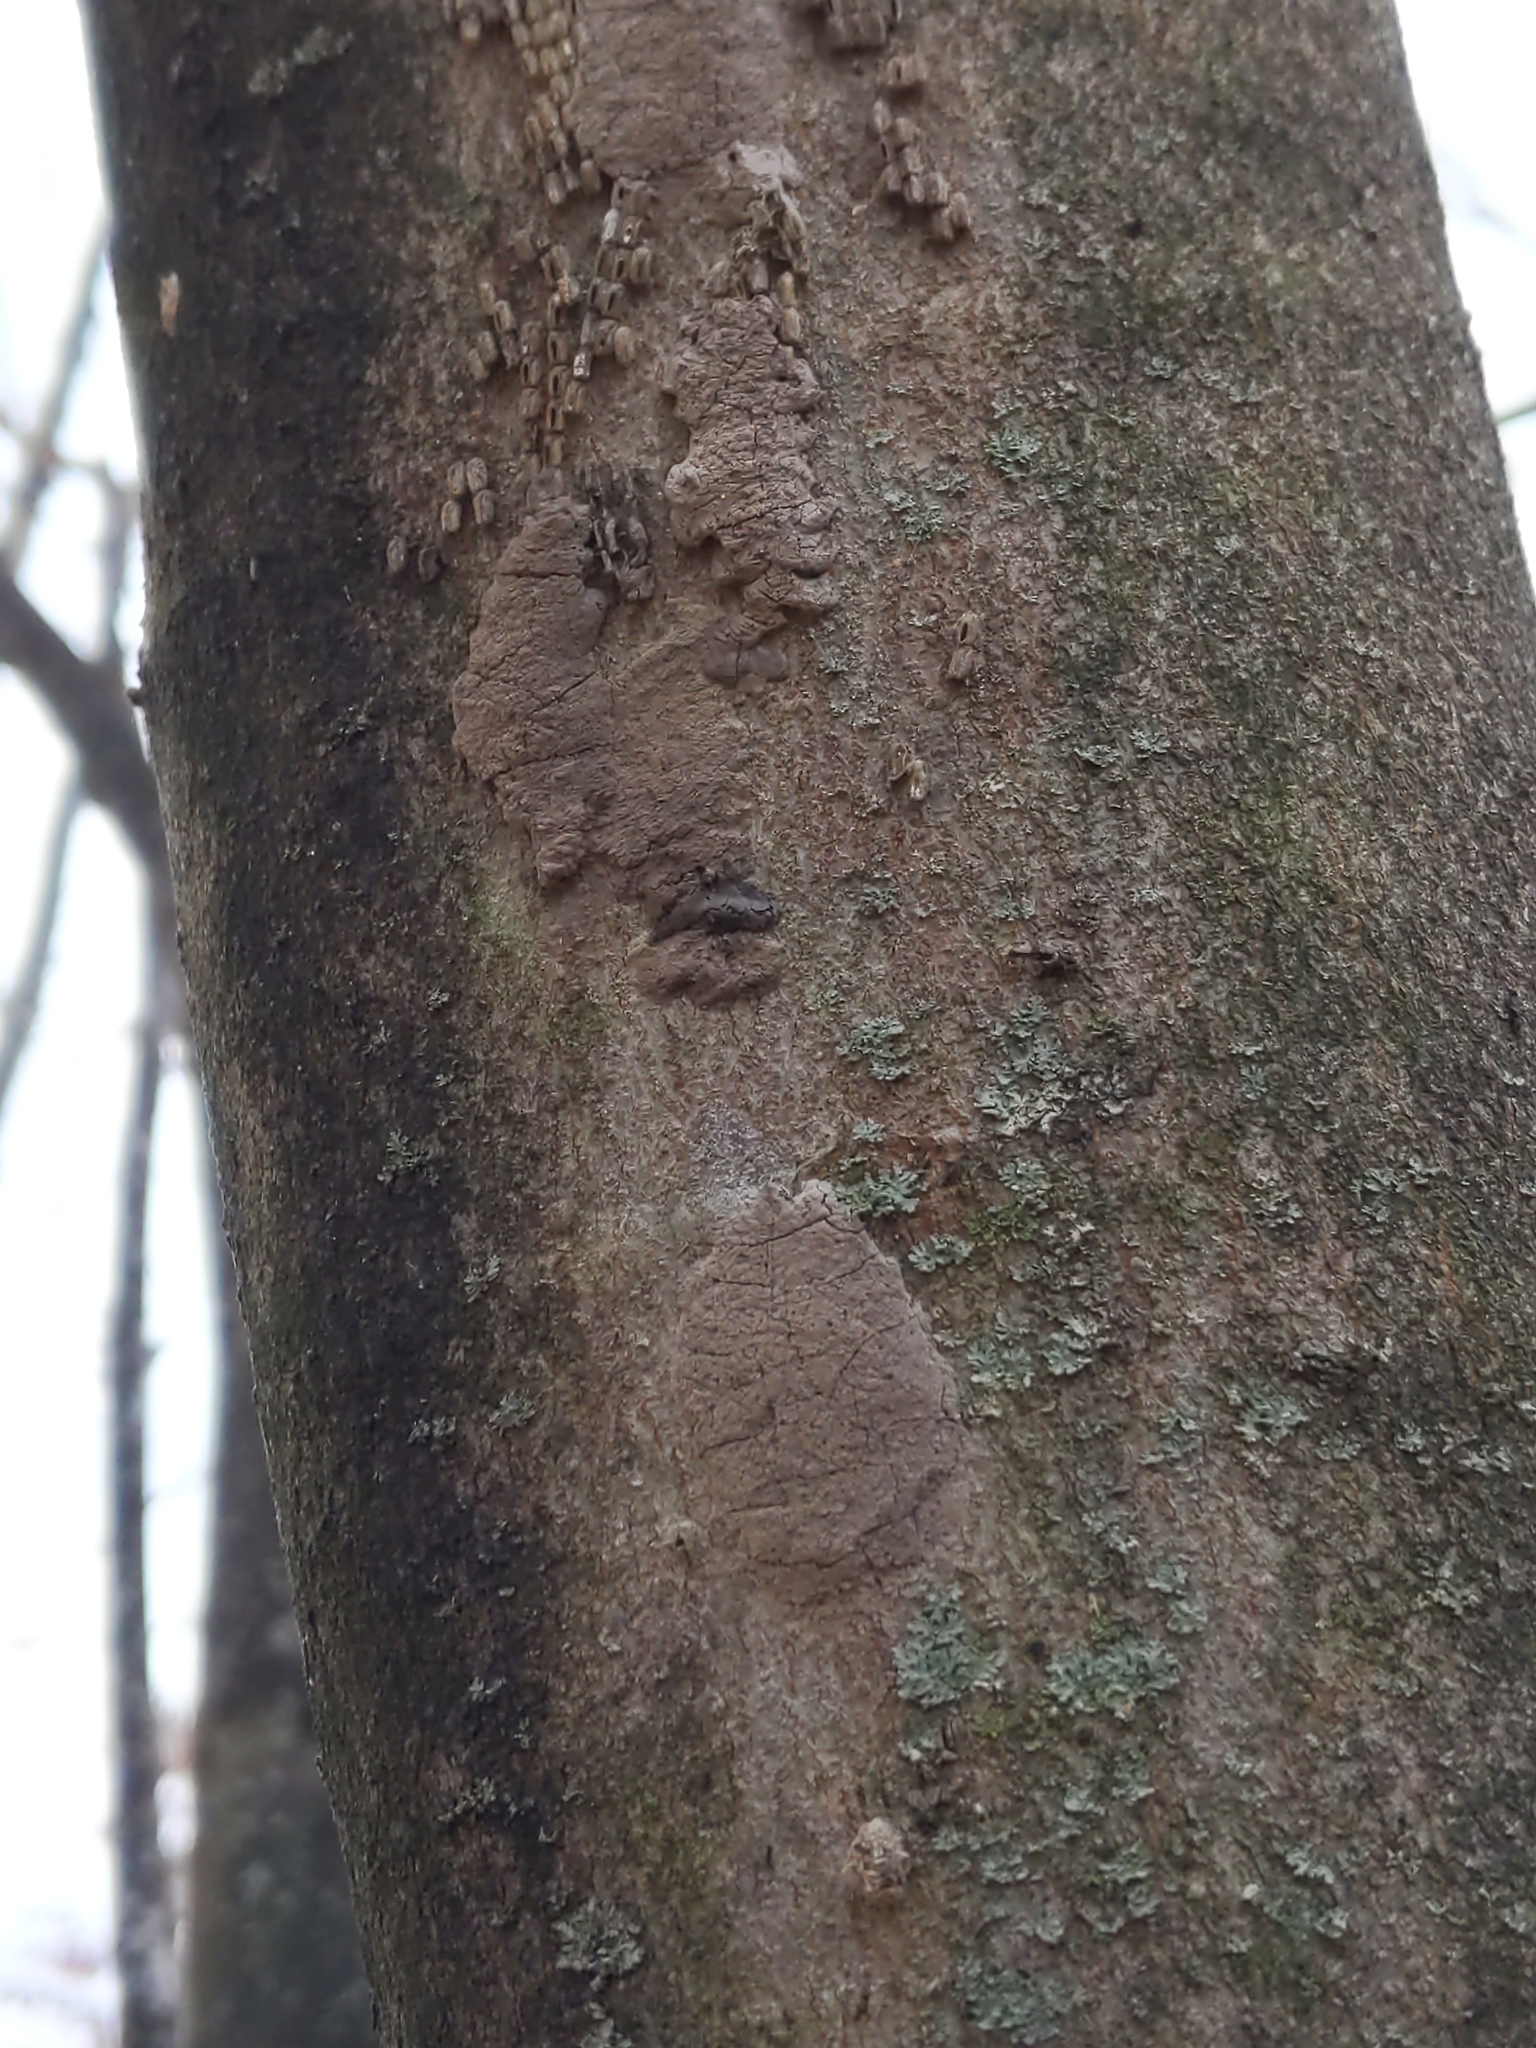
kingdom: Animalia
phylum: Arthropoda
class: Insecta
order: Hemiptera
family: Fulgoridae
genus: Lycorma
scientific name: Lycorma delicatula
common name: Spotted lanternfly
